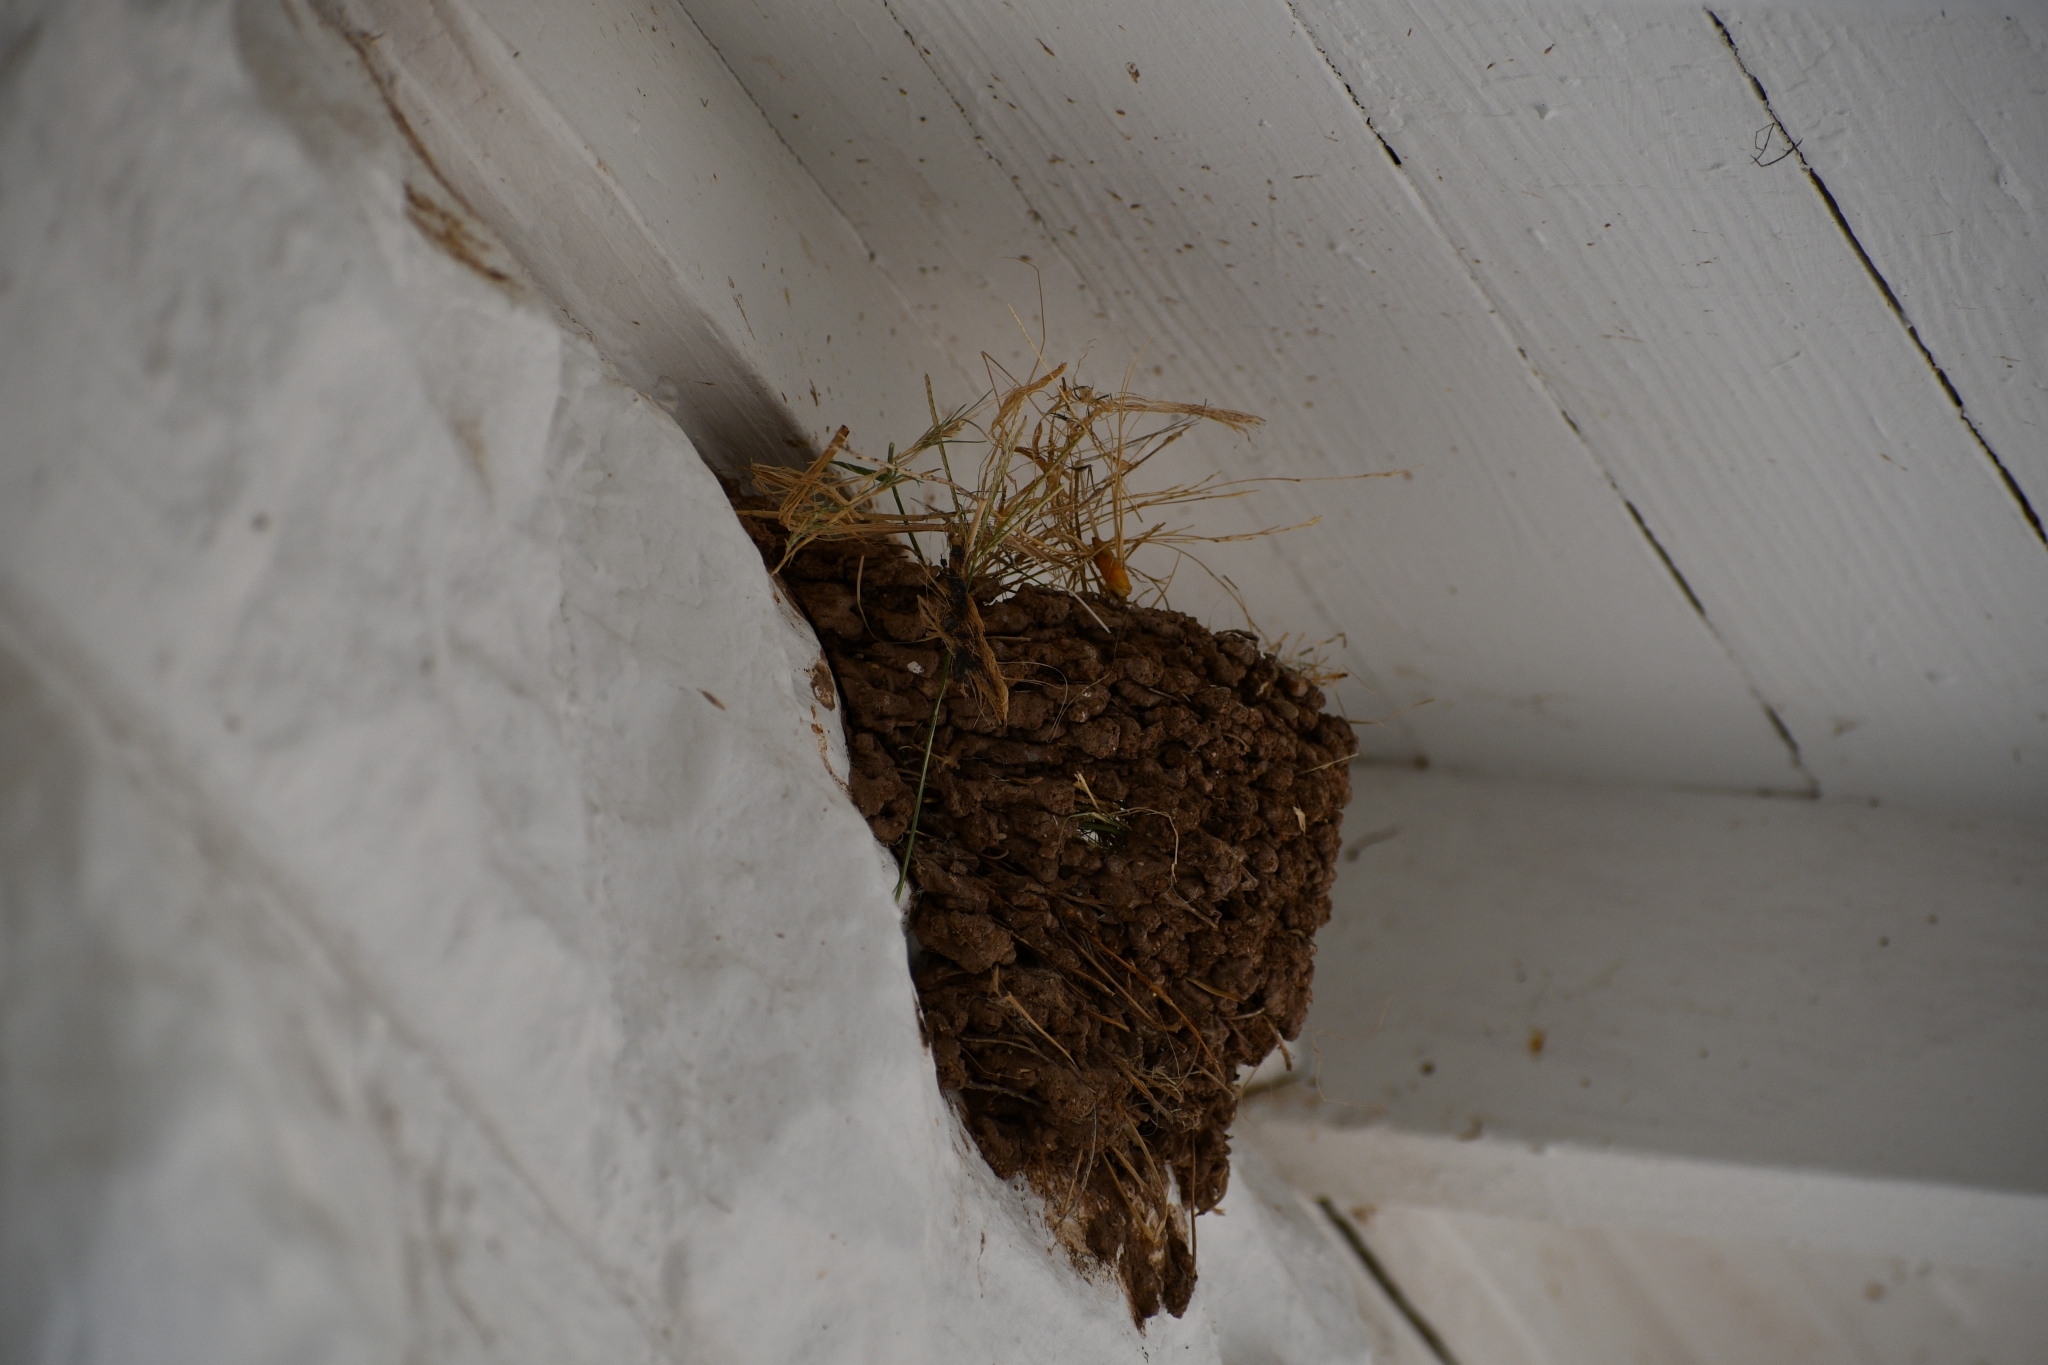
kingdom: Animalia
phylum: Chordata
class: Aves
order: Passeriformes
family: Hirundinidae
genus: Hirundo
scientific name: Hirundo rustica
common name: Barn swallow
